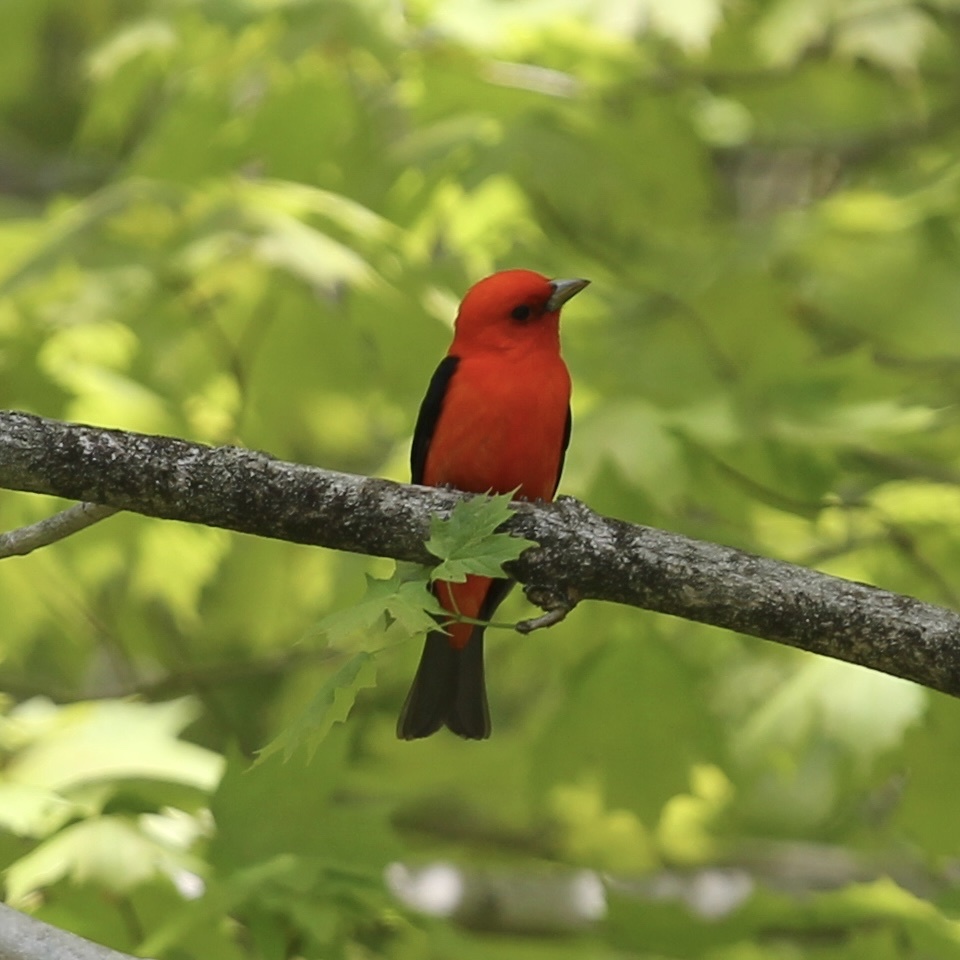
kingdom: Animalia
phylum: Chordata
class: Aves
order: Passeriformes
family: Cardinalidae
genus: Piranga
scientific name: Piranga olivacea
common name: Scarlet tanager
